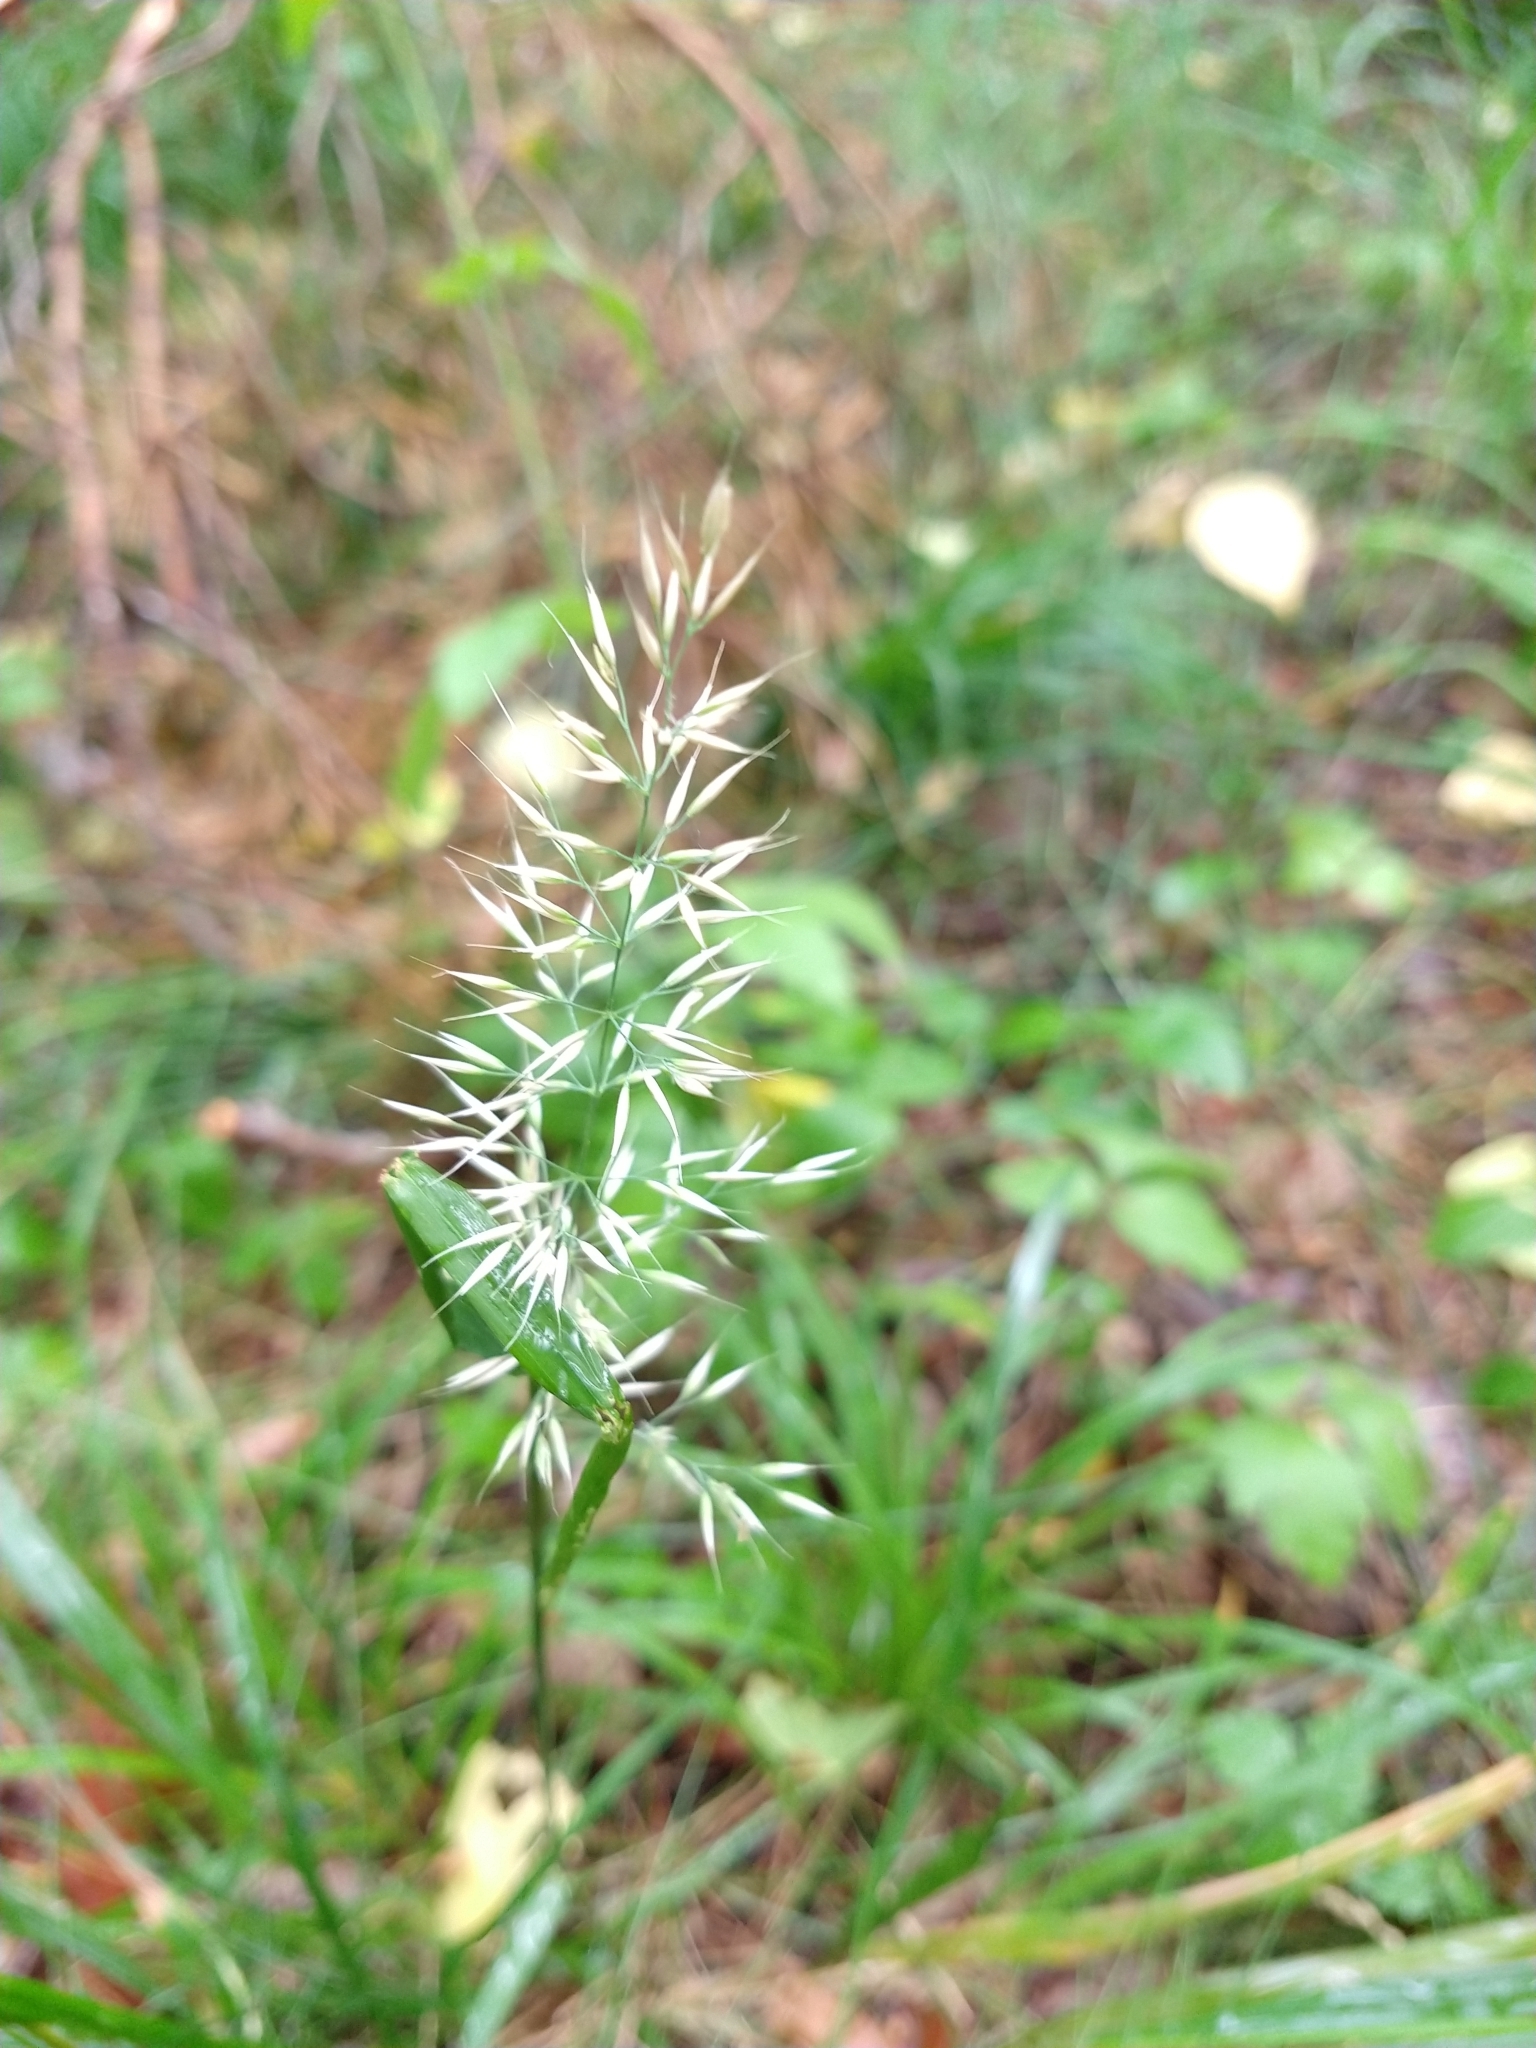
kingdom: Plantae
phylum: Tracheophyta
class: Liliopsida
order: Poales
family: Poaceae
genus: Calamagrostis
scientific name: Calamagrostis arundinacea
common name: Metskastik
